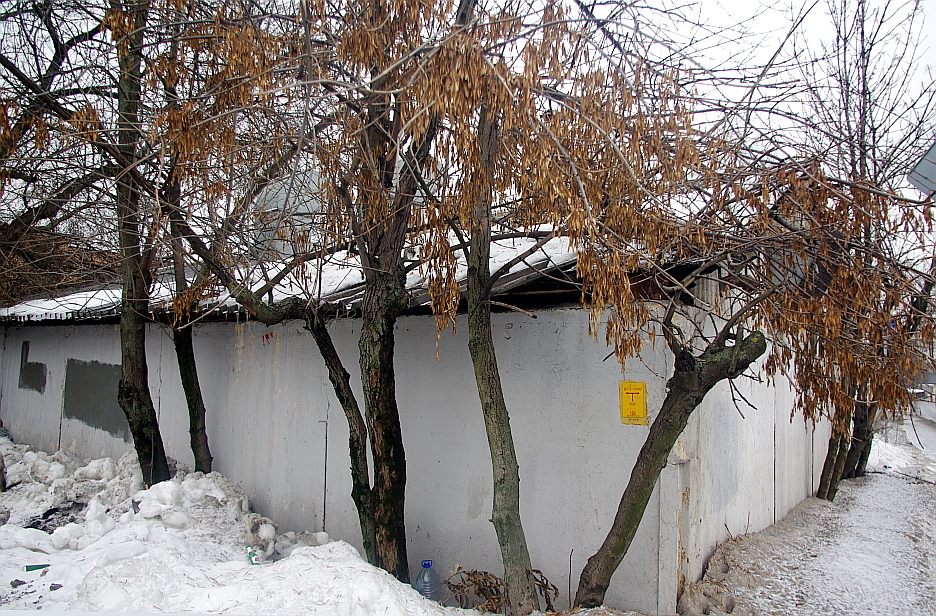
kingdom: Plantae
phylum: Tracheophyta
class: Magnoliopsida
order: Lamiales
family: Oleaceae
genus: Fraxinus
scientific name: Fraxinus pennsylvanica
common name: Green ash
